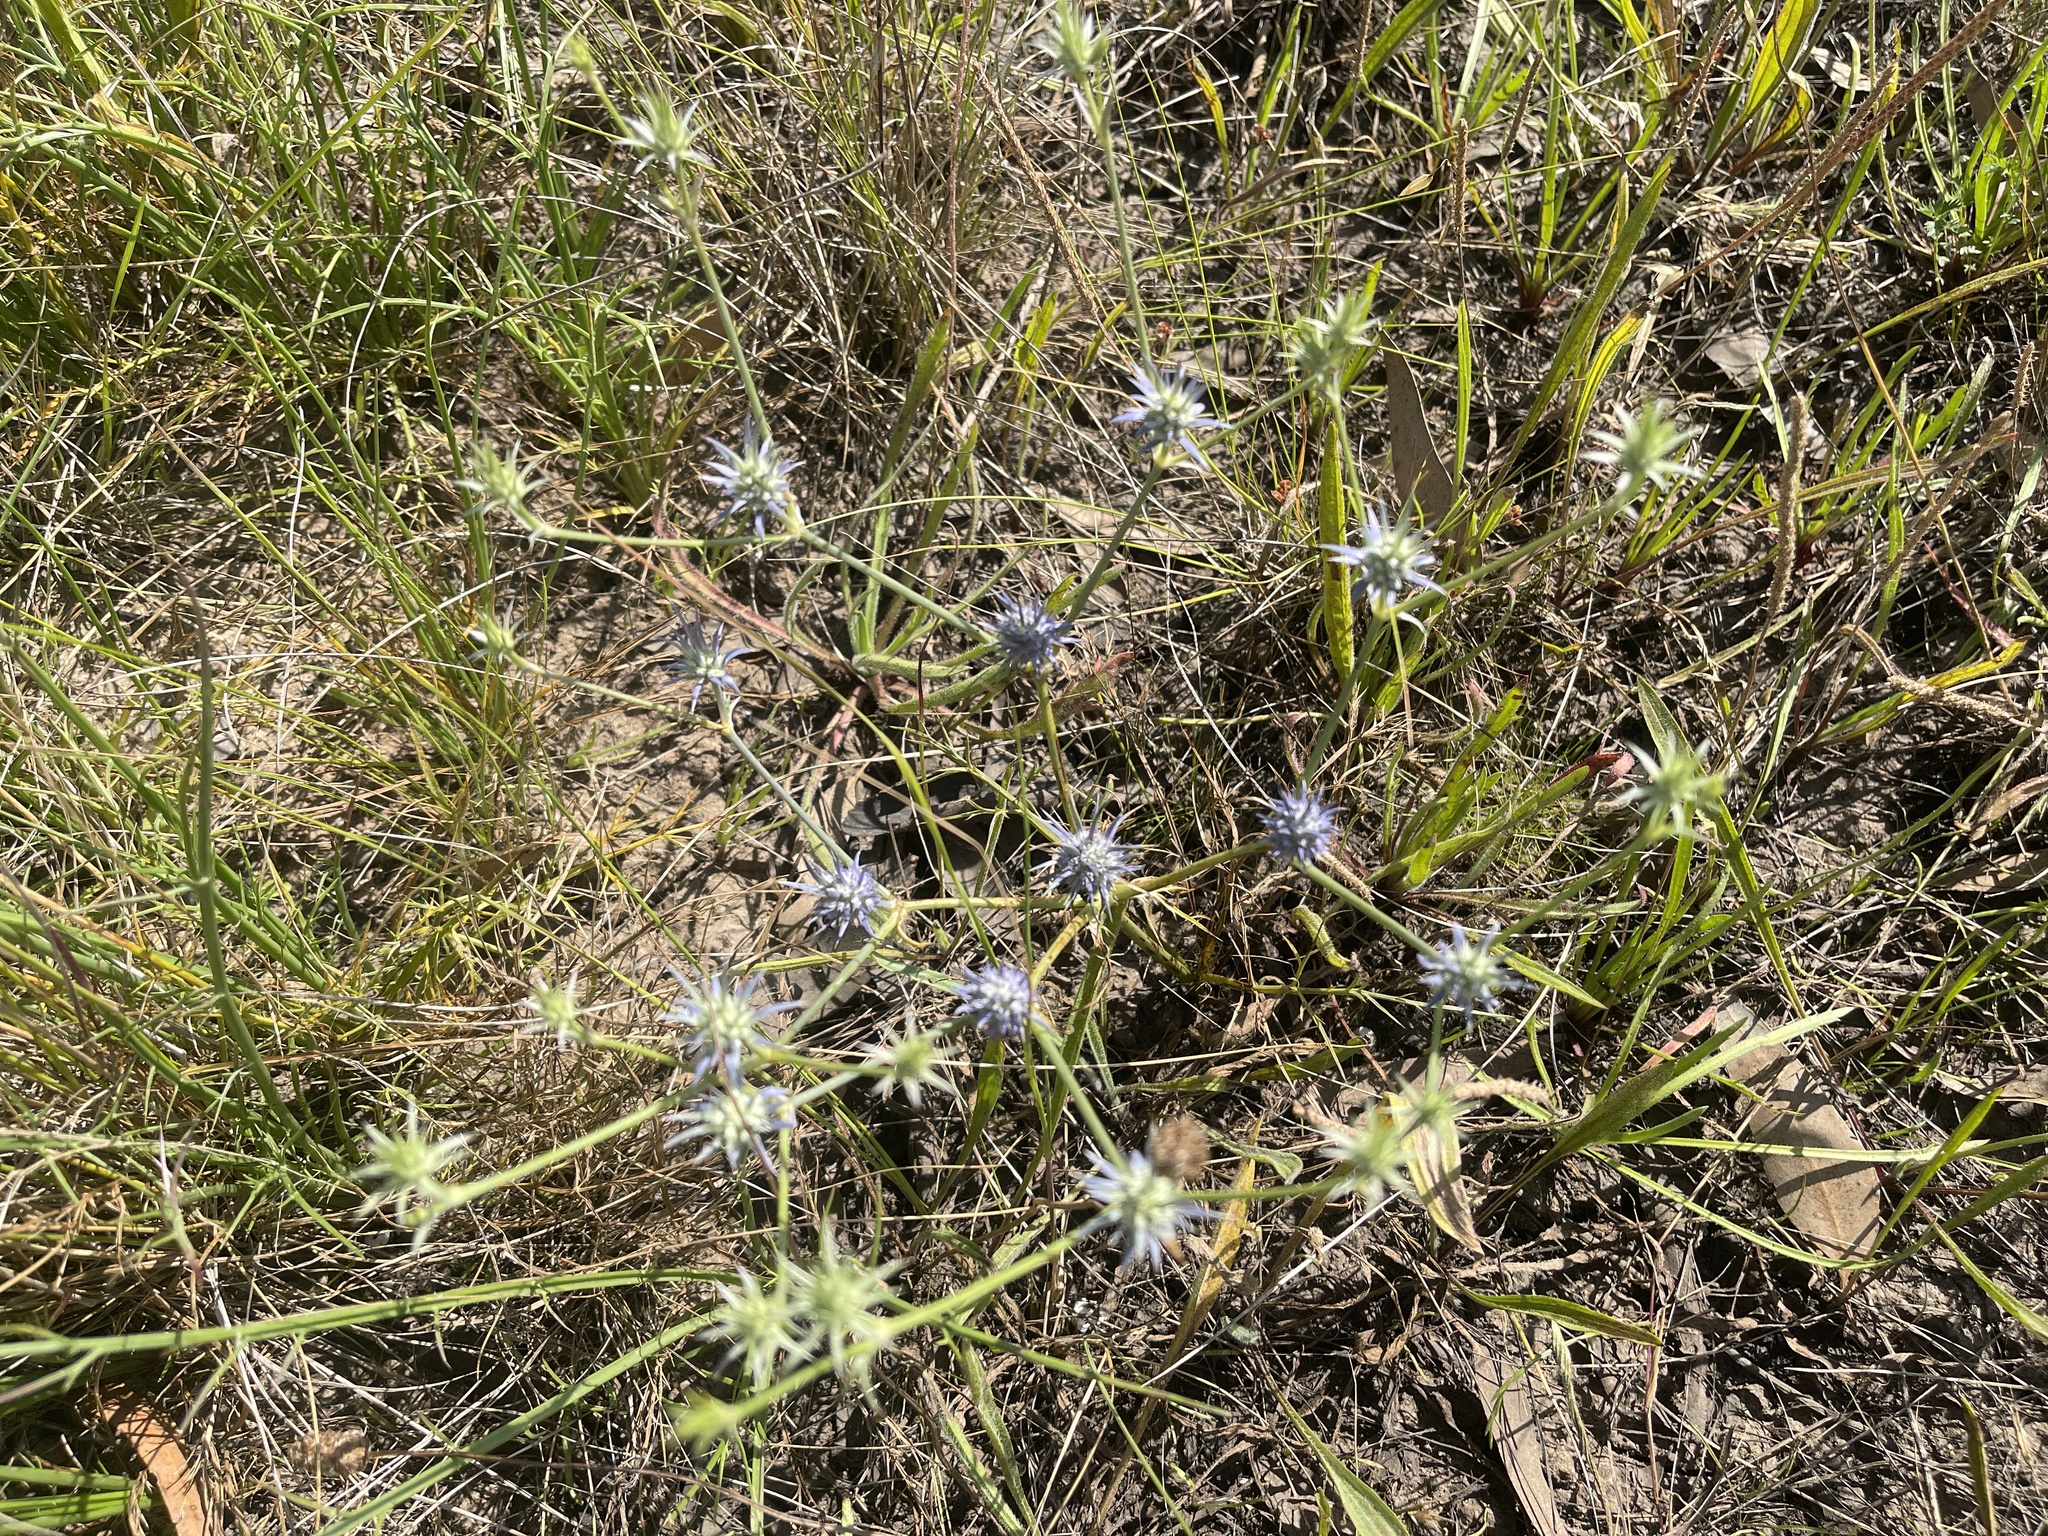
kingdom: Plantae
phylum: Tracheophyta
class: Magnoliopsida
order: Apiales
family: Apiaceae
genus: Eryngium
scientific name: Eryngium ovinum
